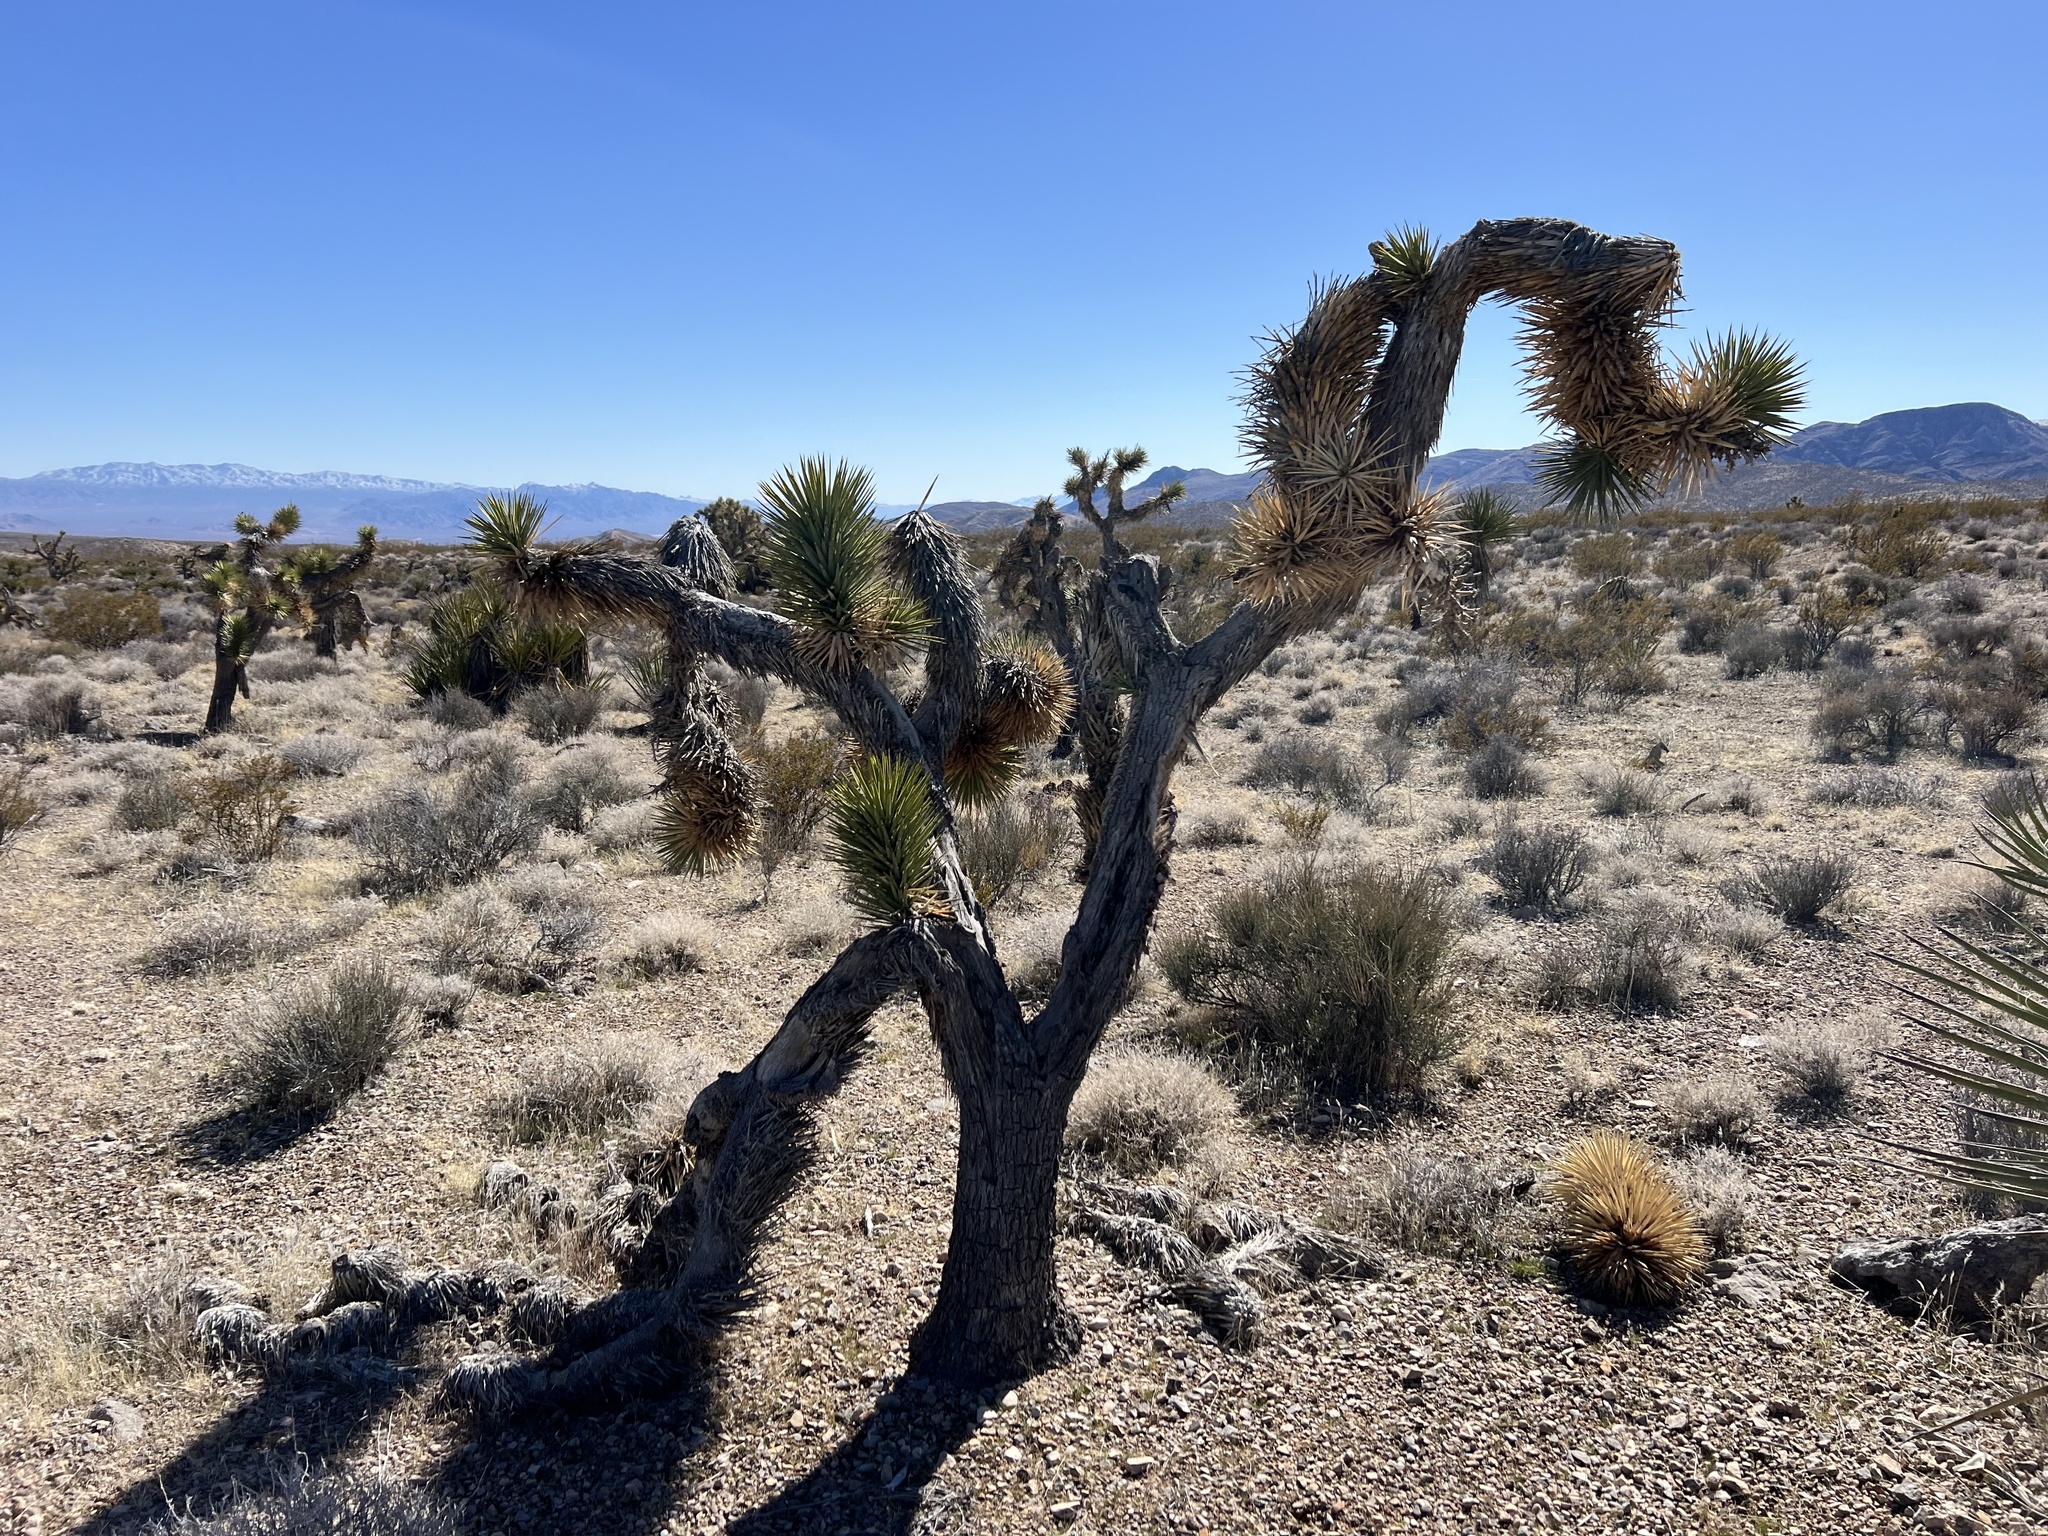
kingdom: Plantae
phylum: Tracheophyta
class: Liliopsida
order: Asparagales
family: Asparagaceae
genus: Yucca
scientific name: Yucca brevifolia
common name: Joshua tree
